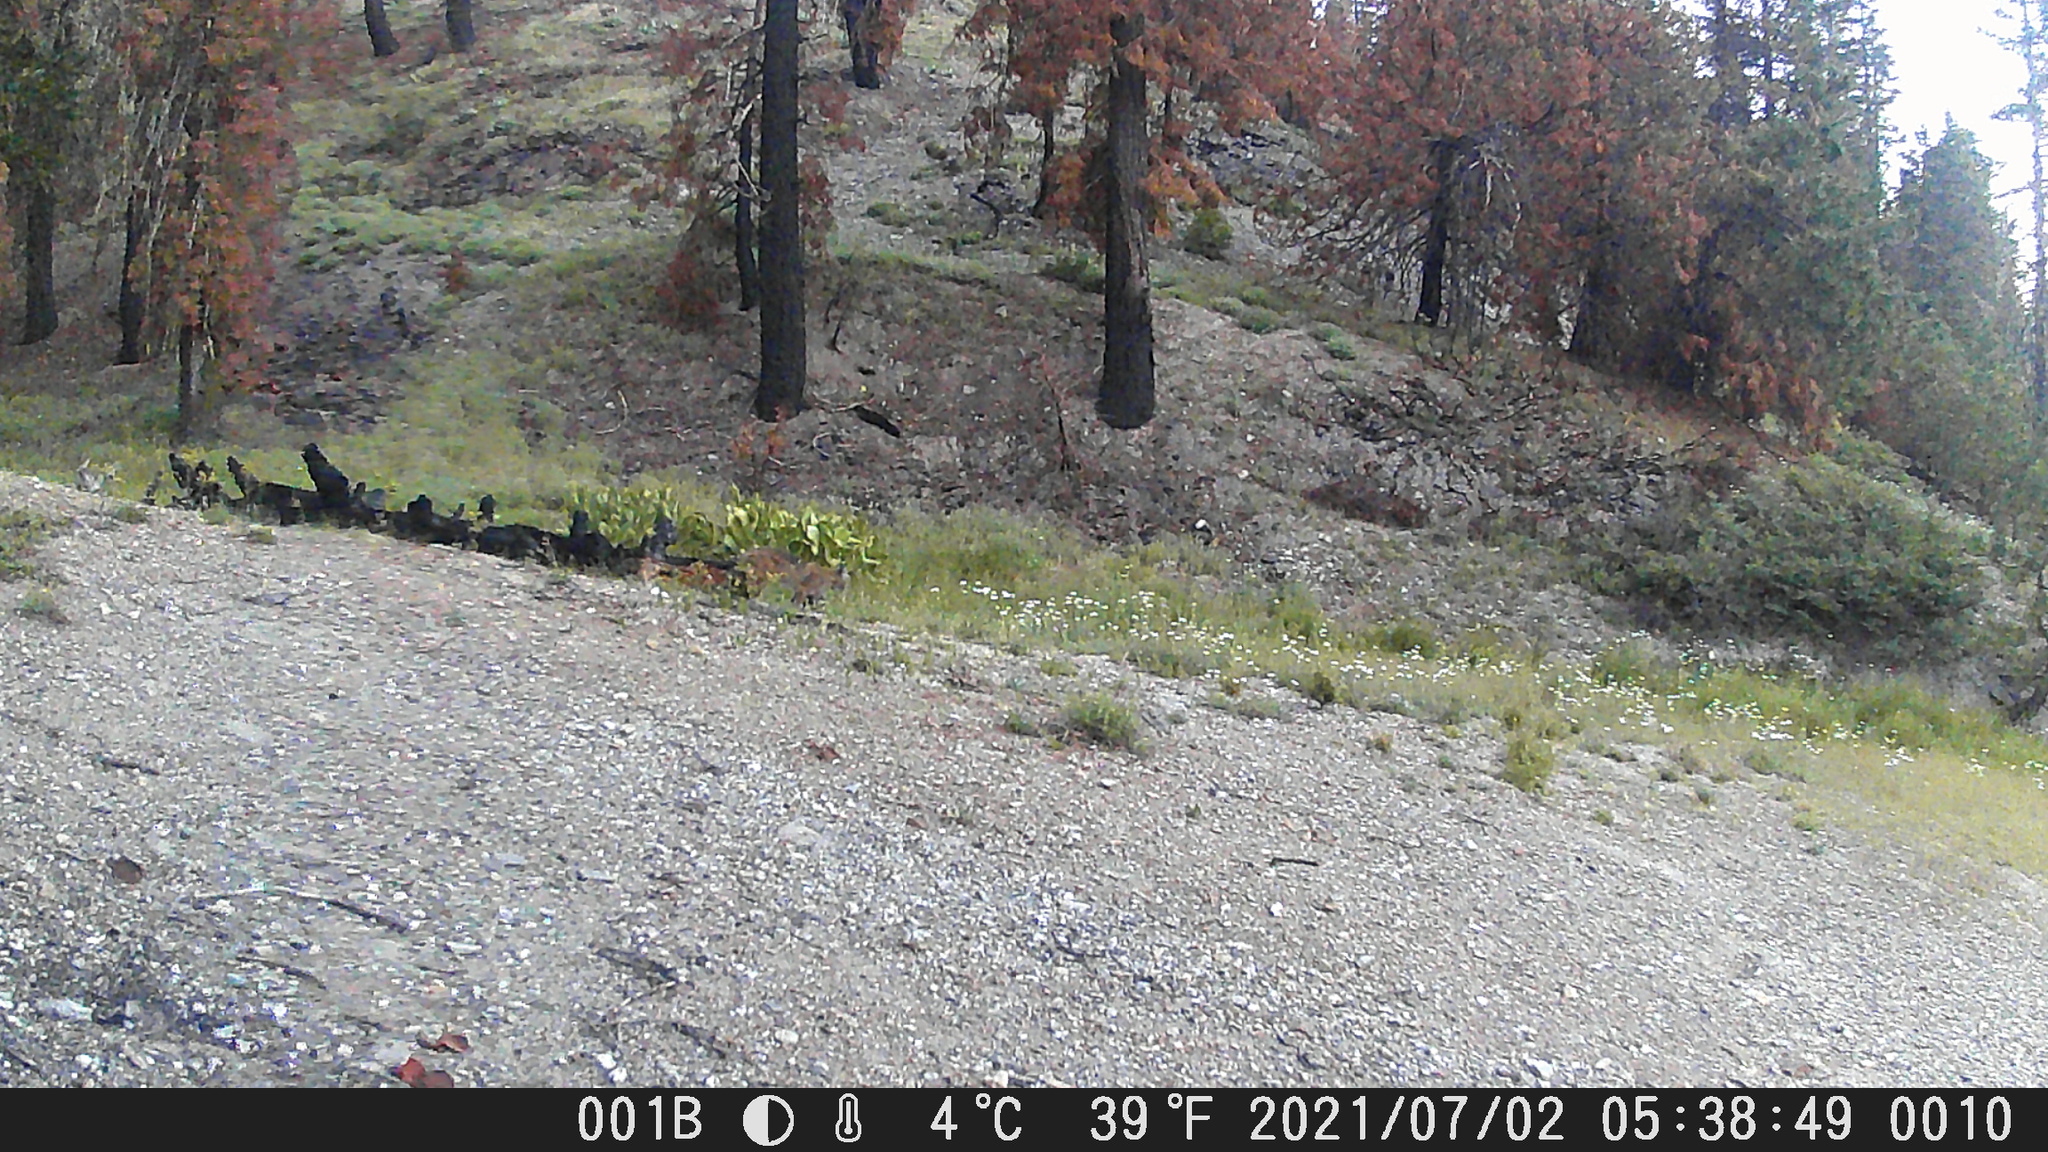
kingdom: Animalia
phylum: Chordata
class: Mammalia
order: Carnivora
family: Felidae
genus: Lynx
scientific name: Lynx rufus
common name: Bobcat
